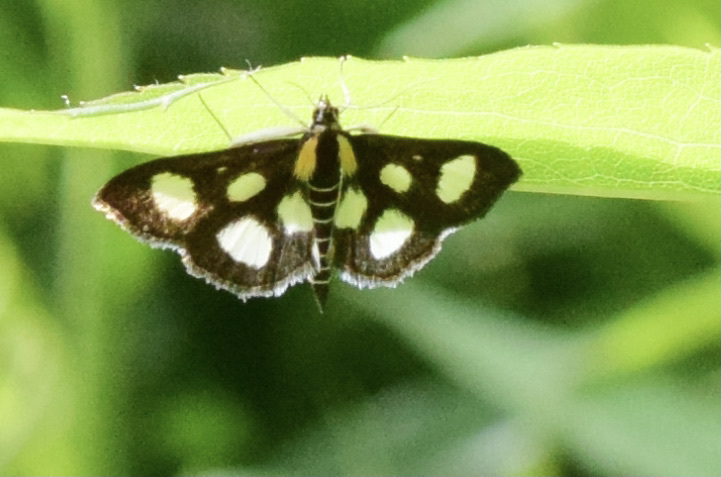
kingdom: Animalia
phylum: Arthropoda
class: Insecta
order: Lepidoptera
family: Crambidae
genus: Anania
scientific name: Anania funebris
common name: White-spotted sable moth
